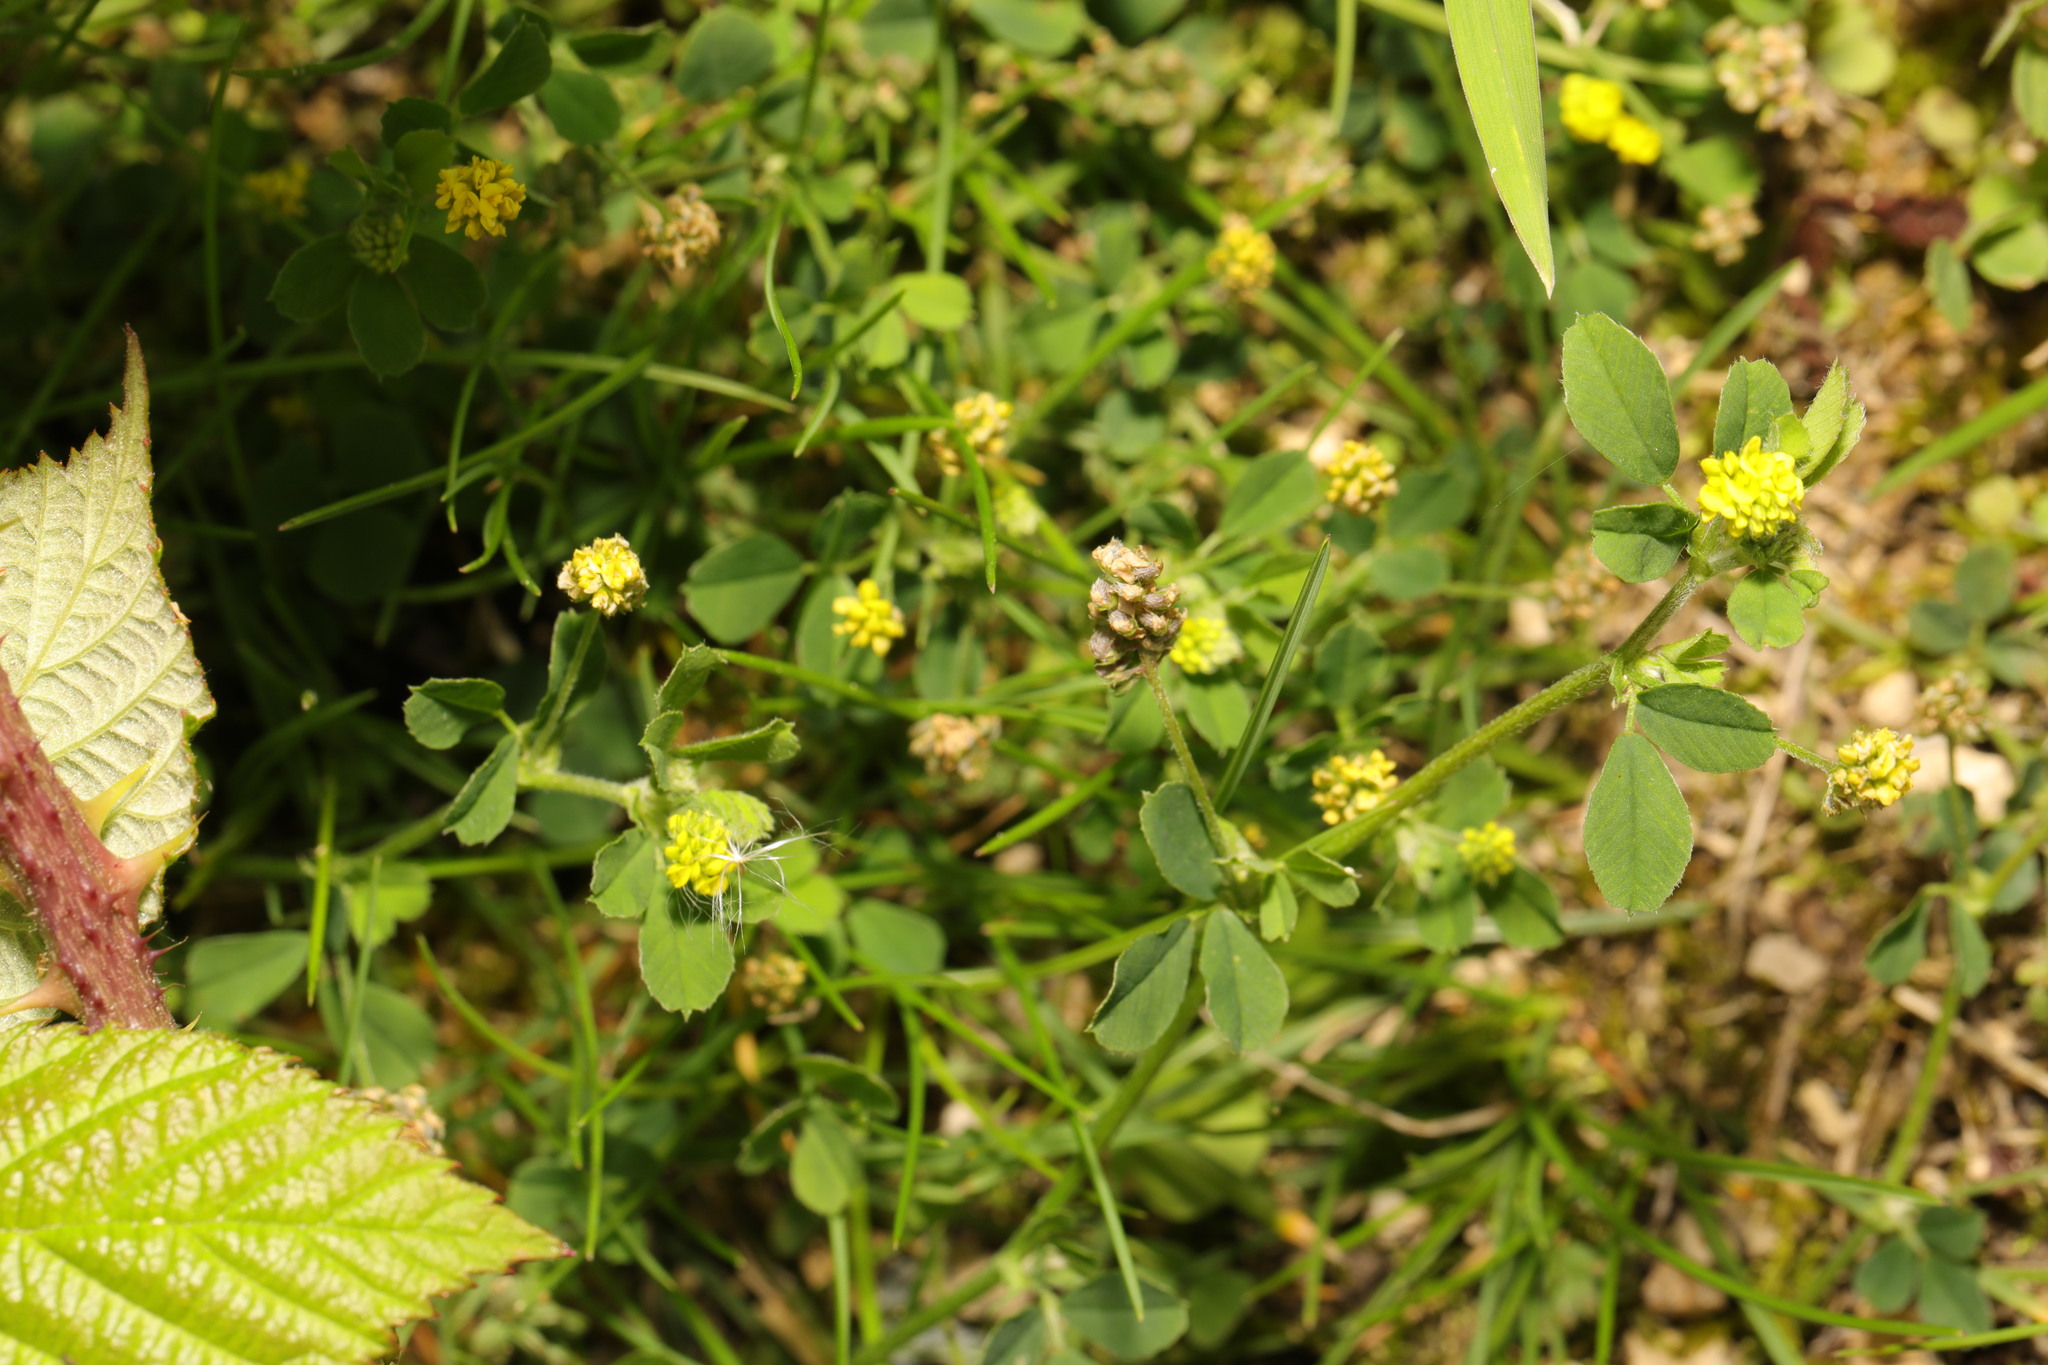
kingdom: Plantae
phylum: Tracheophyta
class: Magnoliopsida
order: Fabales
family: Fabaceae
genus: Medicago
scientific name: Medicago lupulina
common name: Black medick
